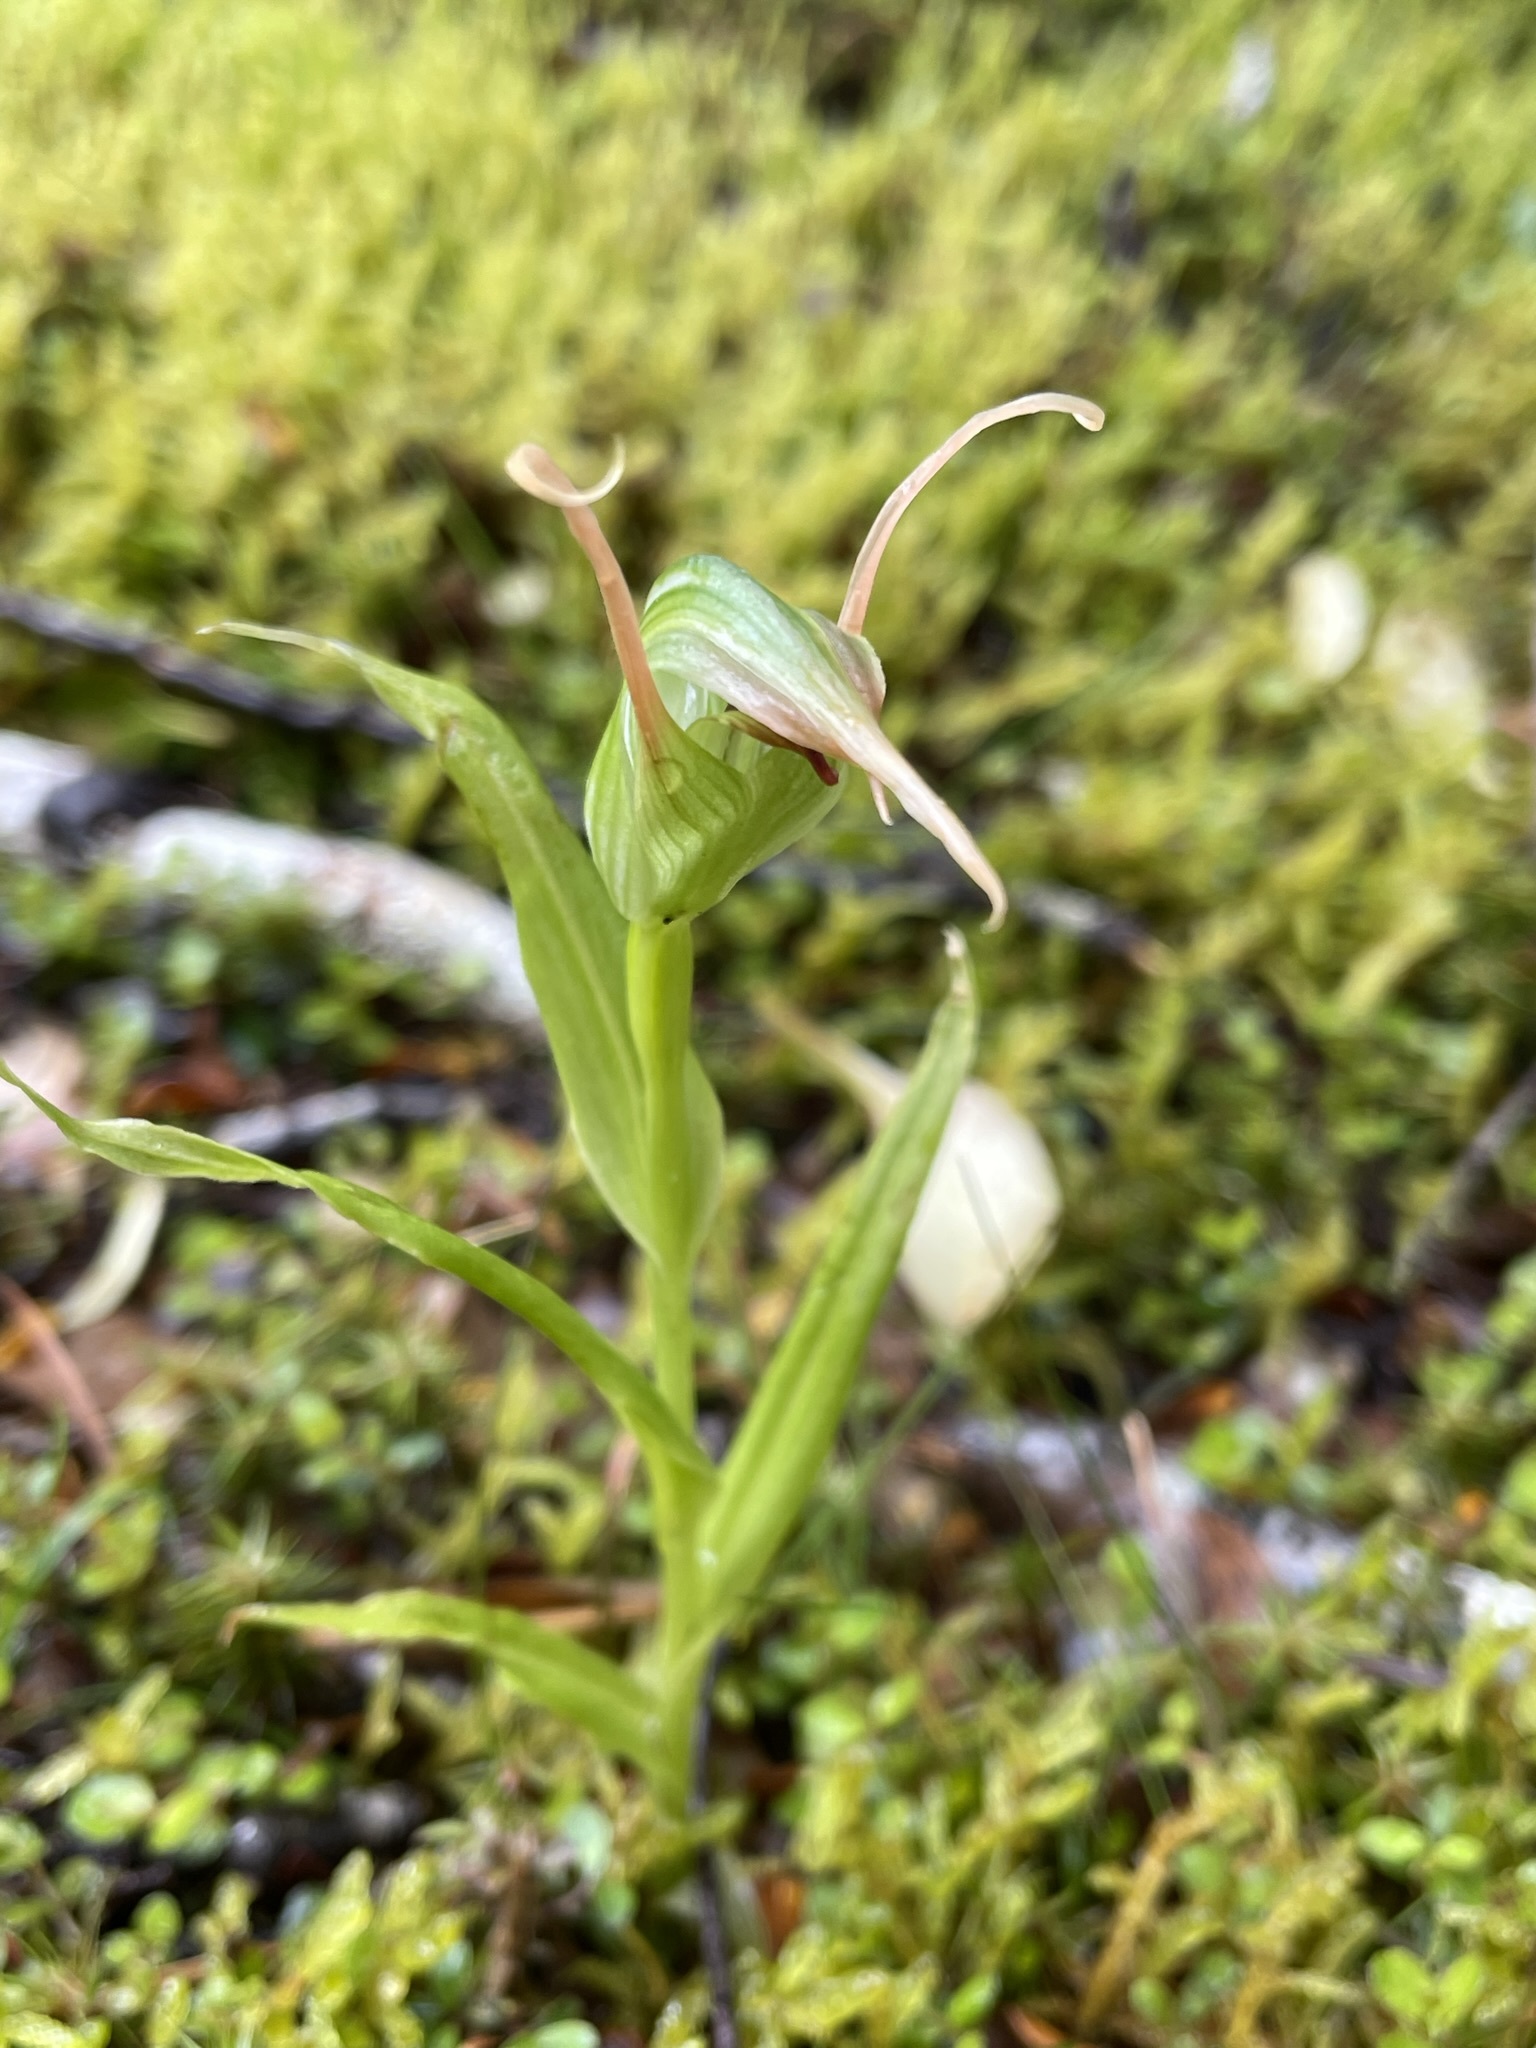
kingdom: Plantae
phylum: Tracheophyta
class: Liliopsida
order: Asparagales
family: Orchidaceae
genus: Pterostylis
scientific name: Pterostylis banksii
